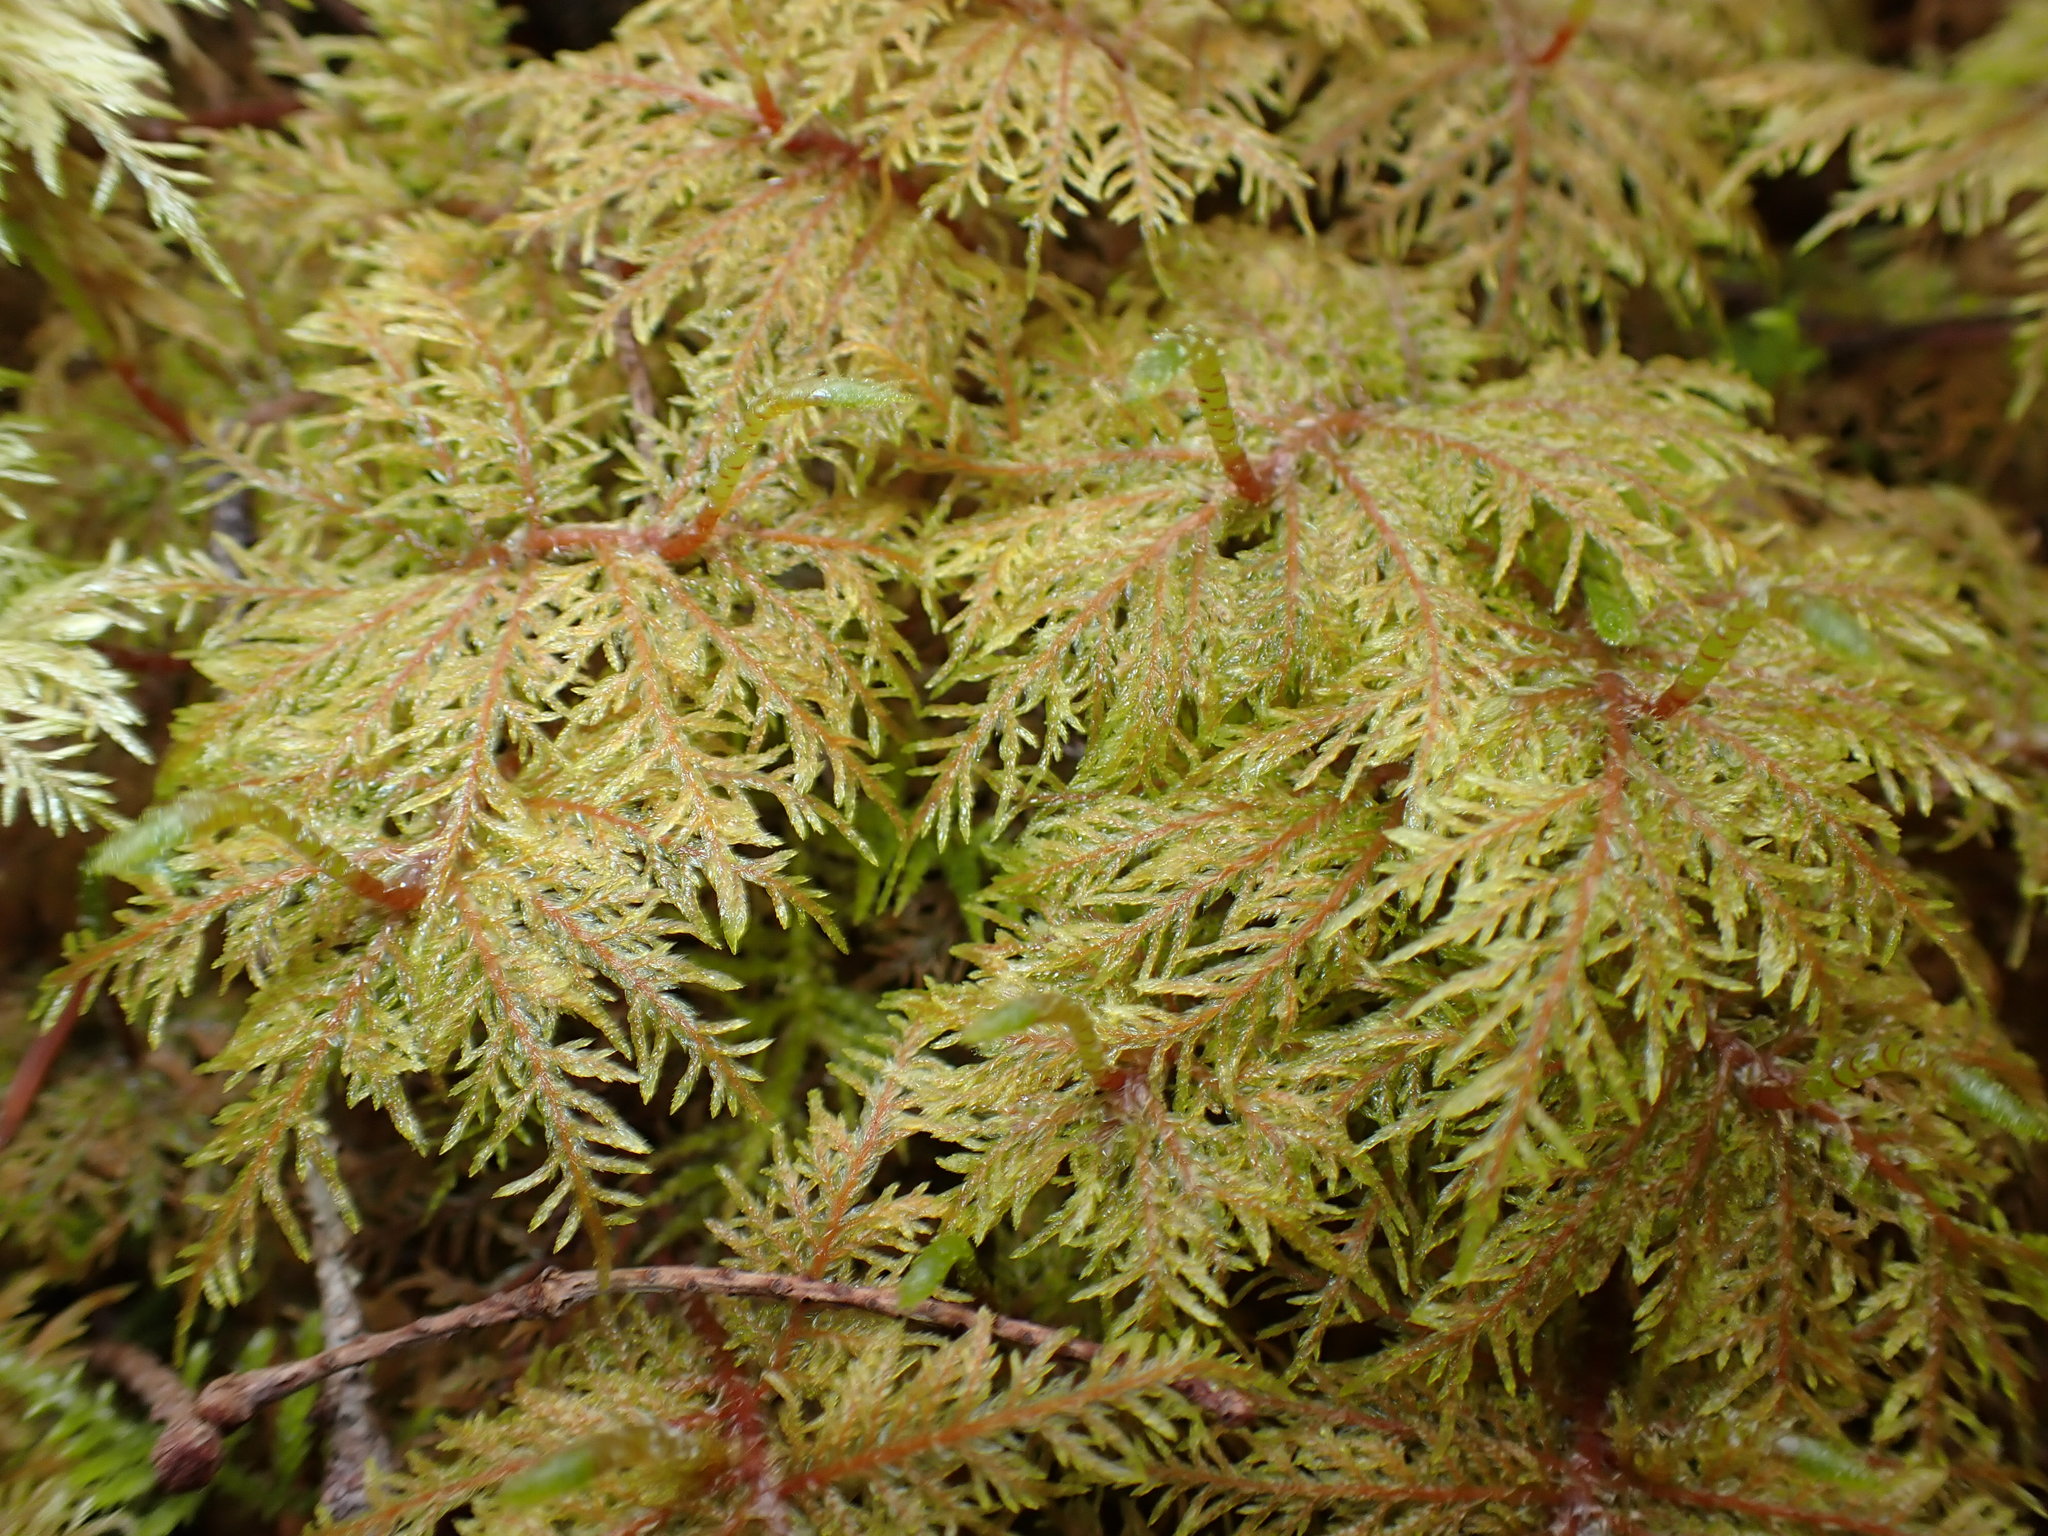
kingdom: Plantae
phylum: Bryophyta
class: Bryopsida
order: Hypnales
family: Hylocomiaceae
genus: Hylocomium
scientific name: Hylocomium splendens
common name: Stairstep moss
